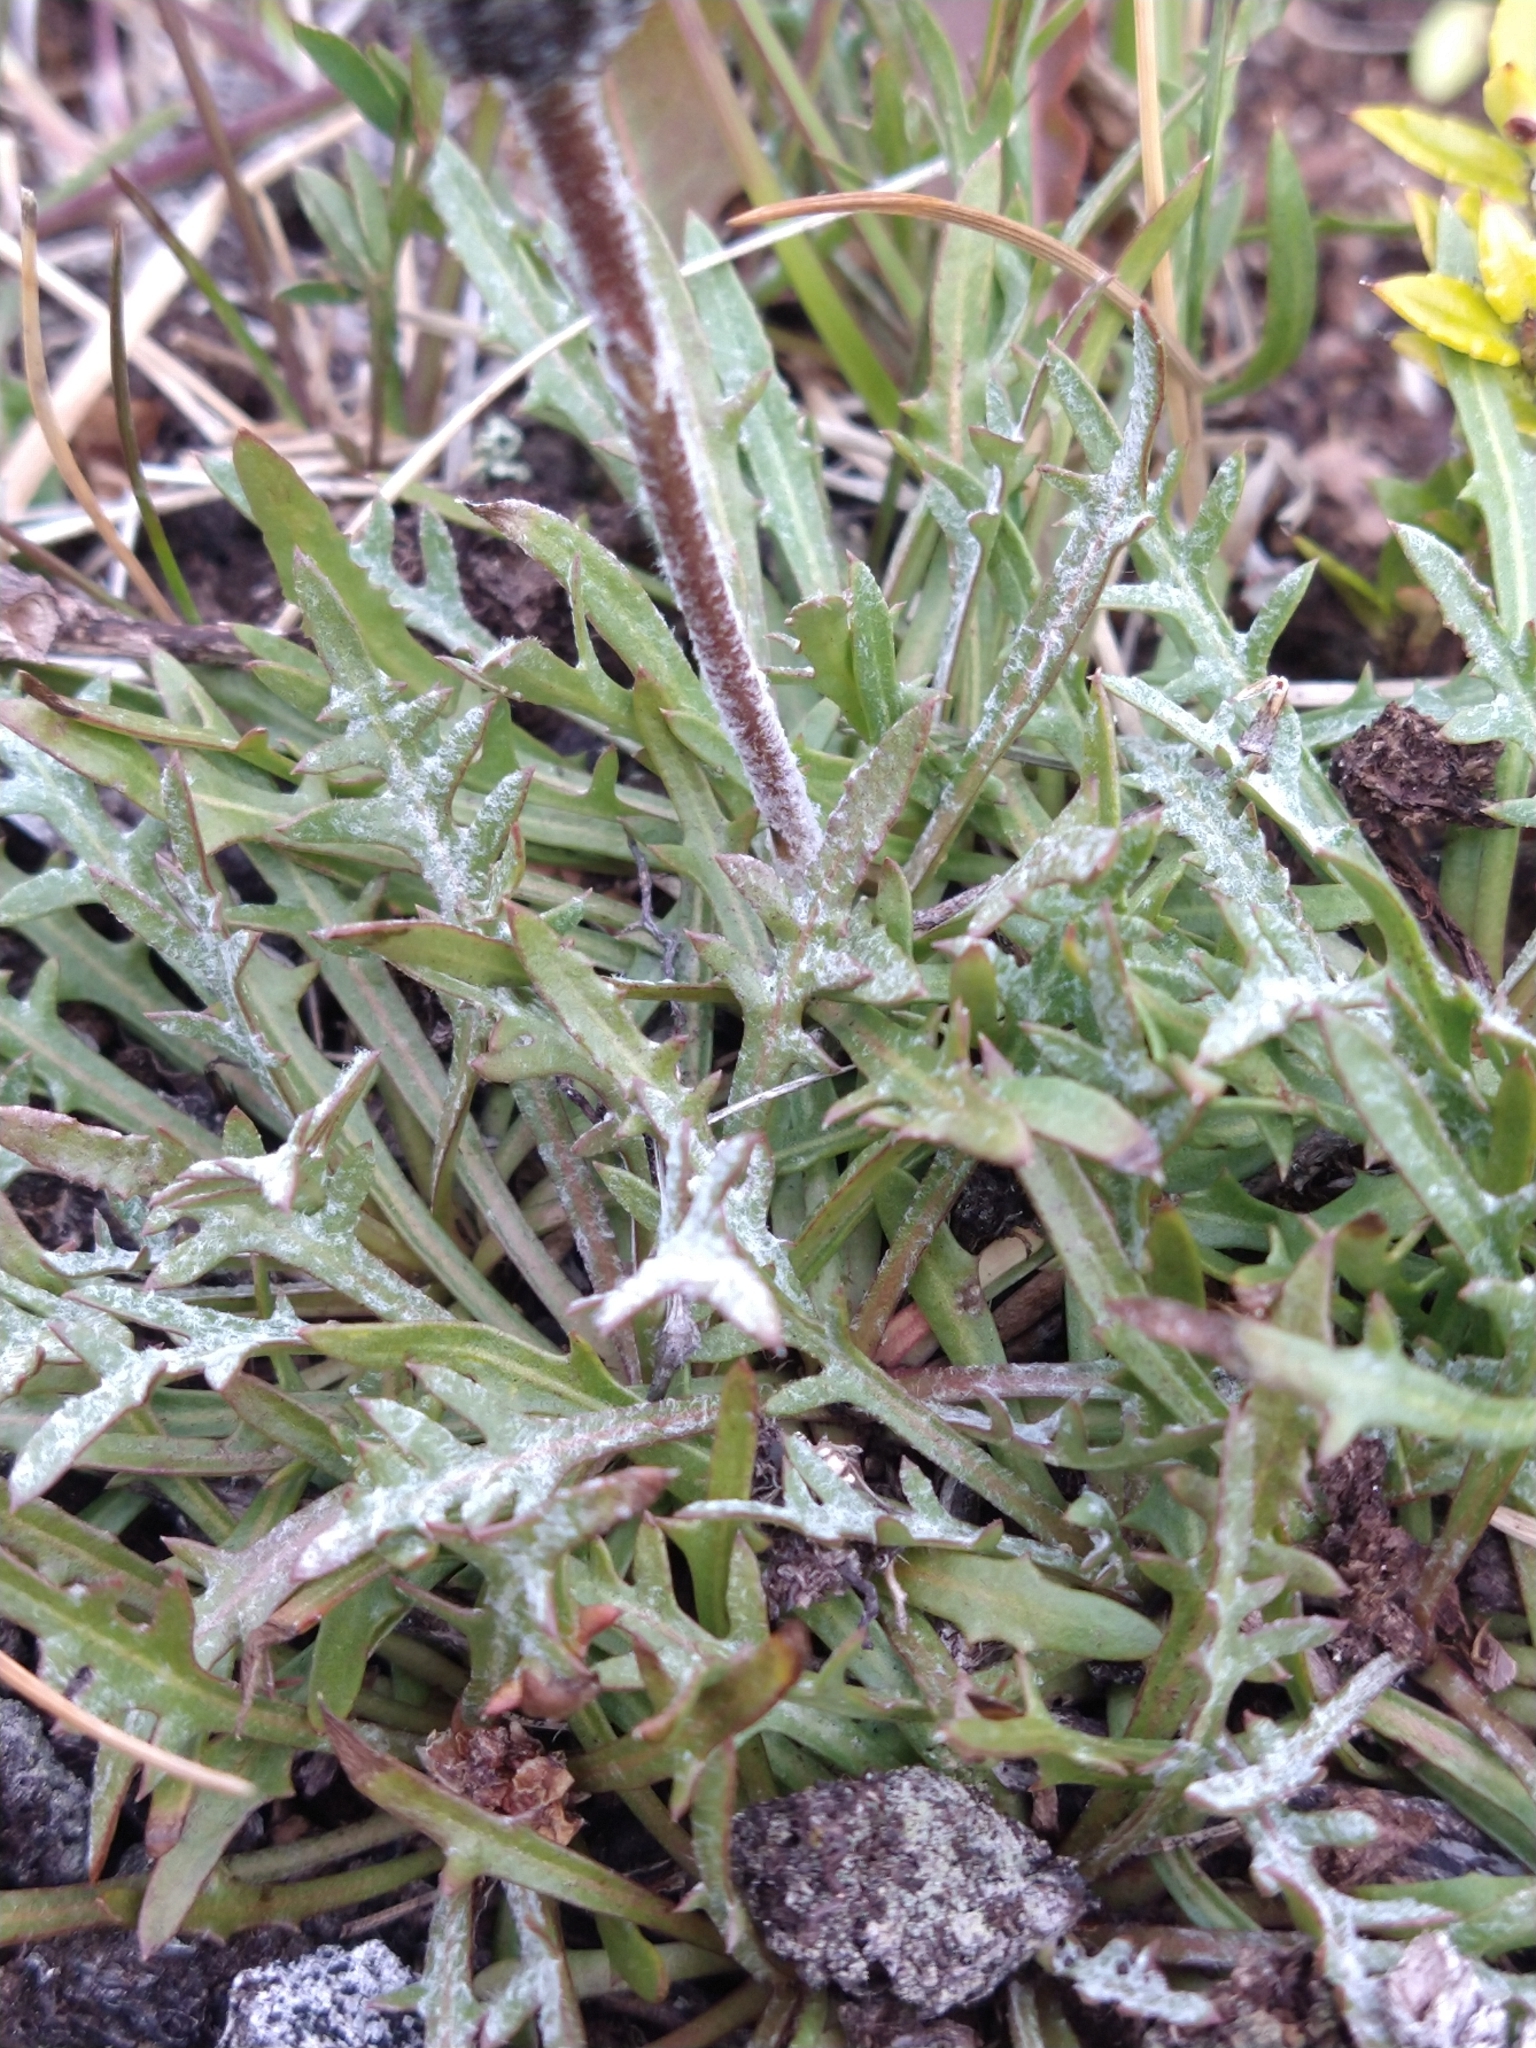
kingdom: Plantae
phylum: Tracheophyta
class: Magnoliopsida
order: Asterales
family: Asteraceae
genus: Hypochaeris
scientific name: Hypochaeris incana
